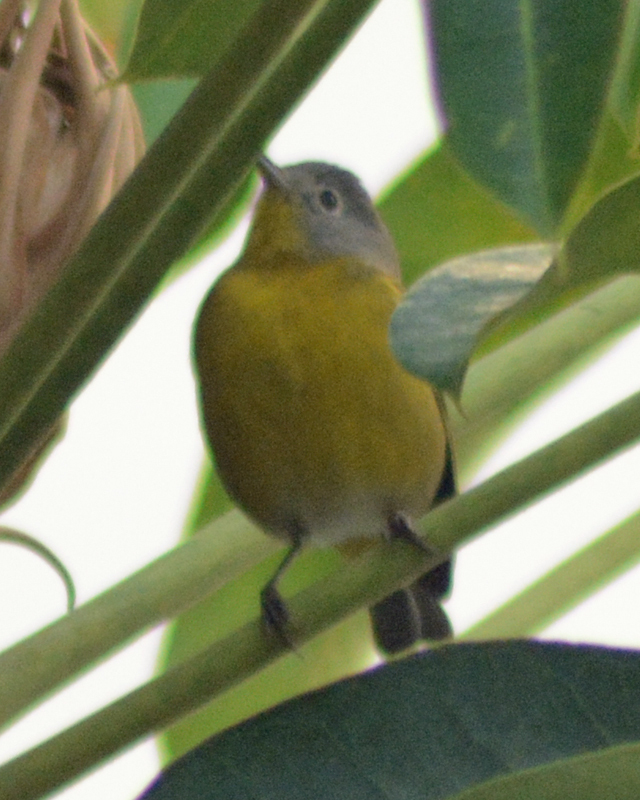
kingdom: Animalia
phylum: Chordata
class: Aves
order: Passeriformes
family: Parulidae
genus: Leiothlypis
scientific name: Leiothlypis ruficapilla
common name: Nashville warbler
